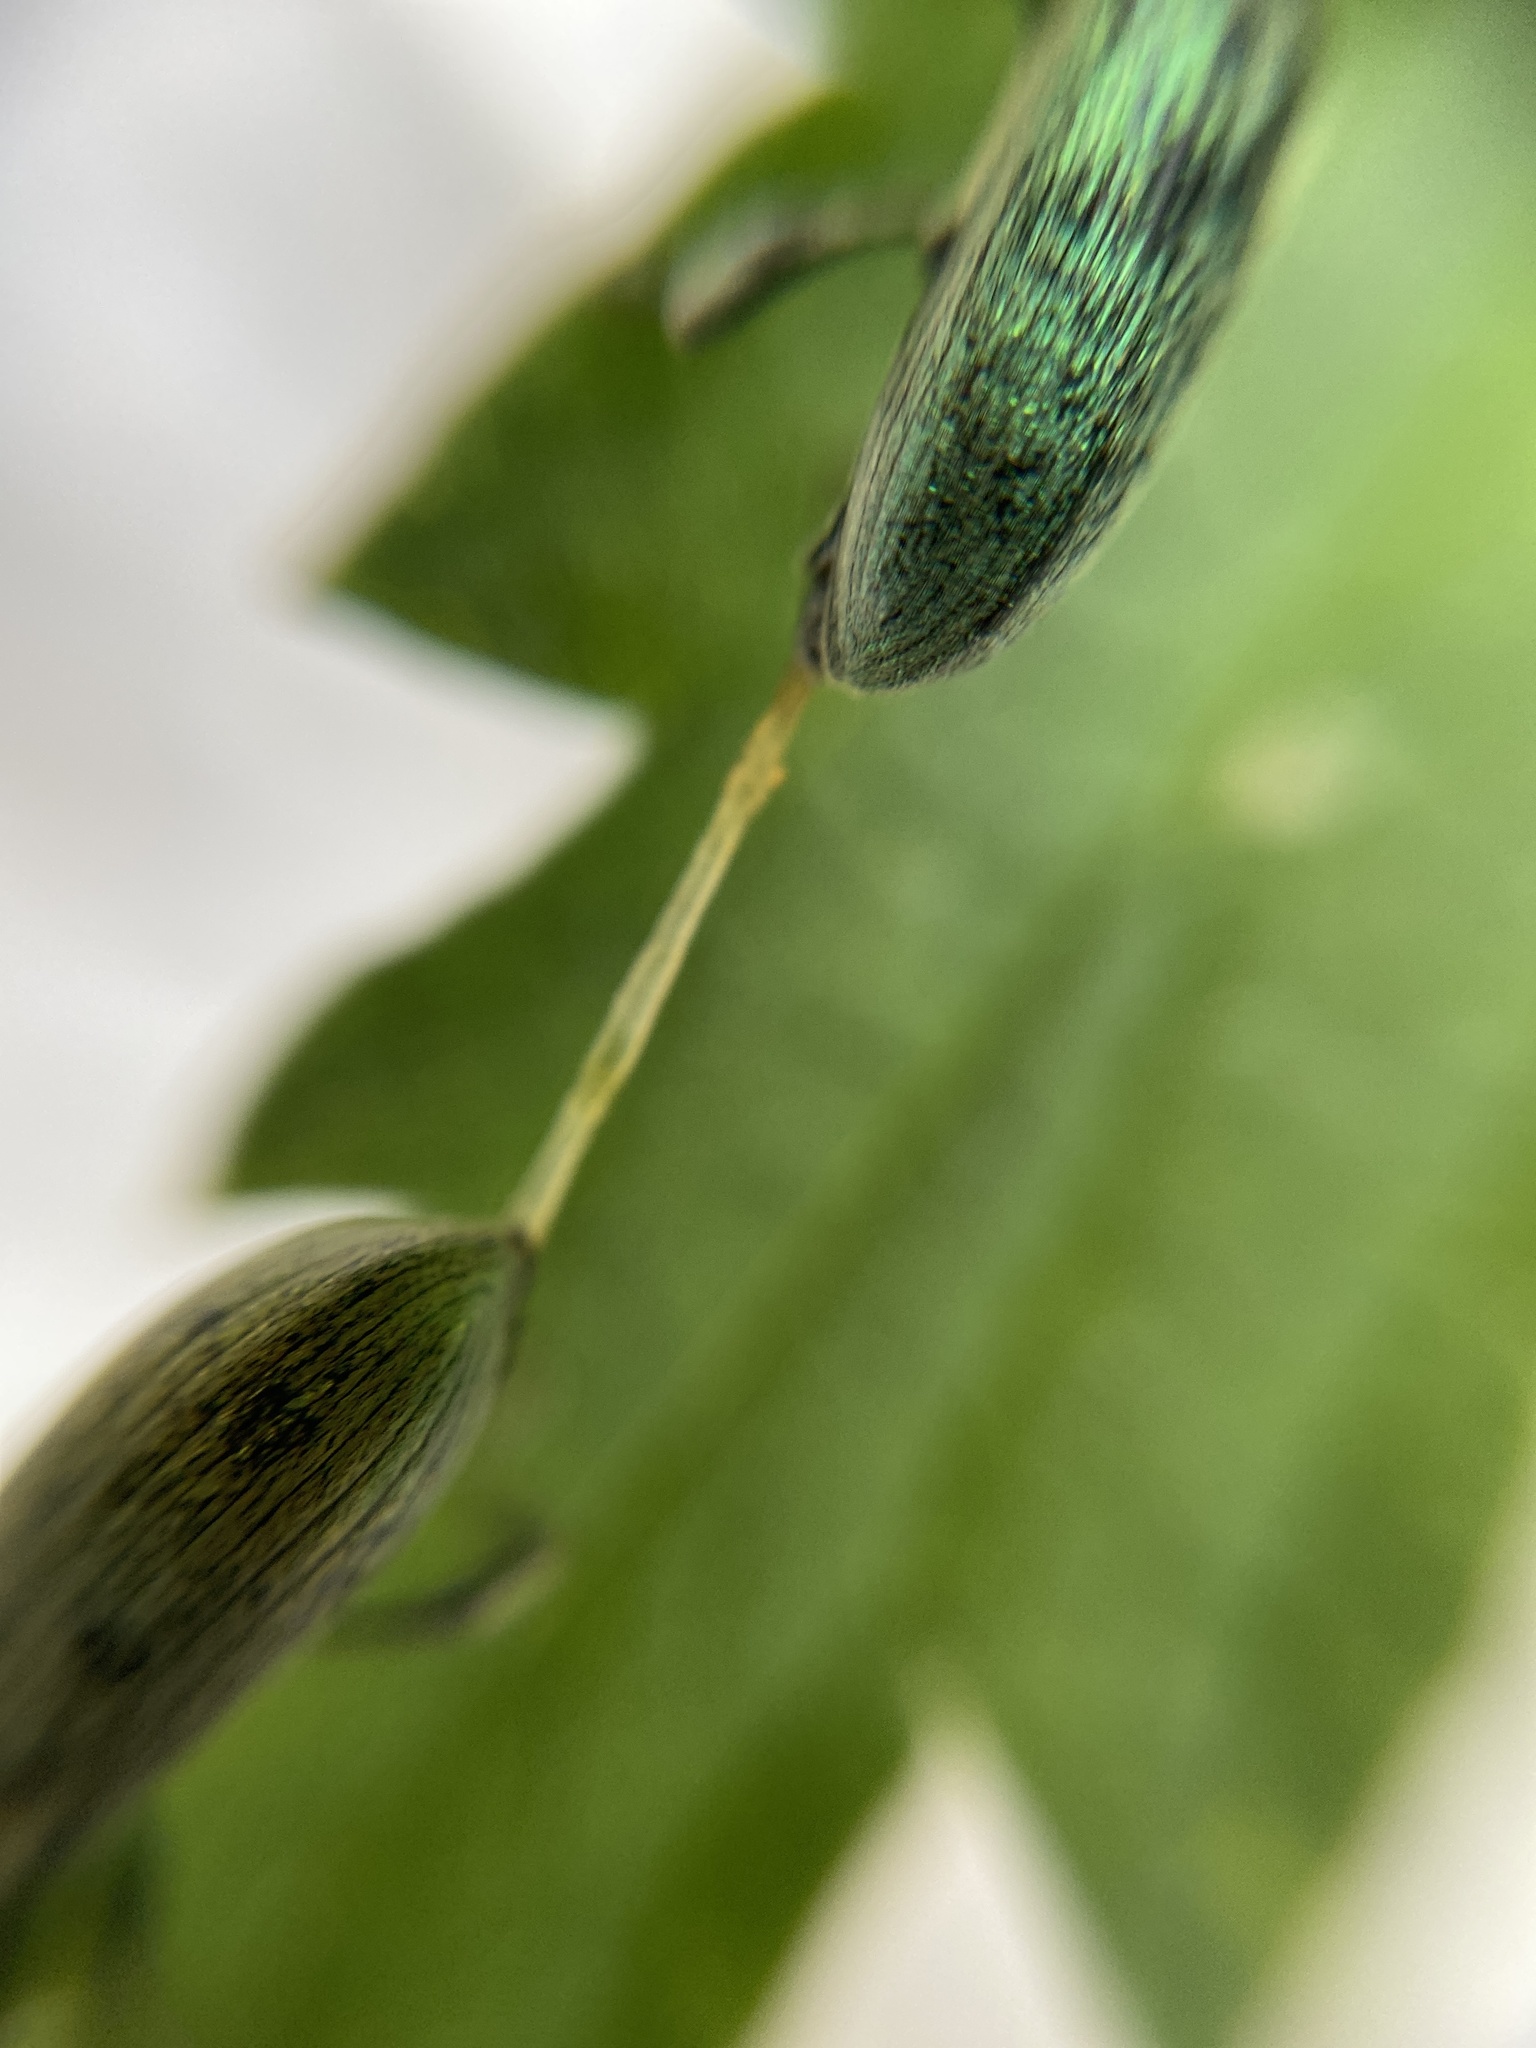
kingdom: Animalia
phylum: Arthropoda
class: Insecta
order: Coleoptera
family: Curculionidae
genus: Phyllobius
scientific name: Phyllobius pomaceus
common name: Green nettle weevil
